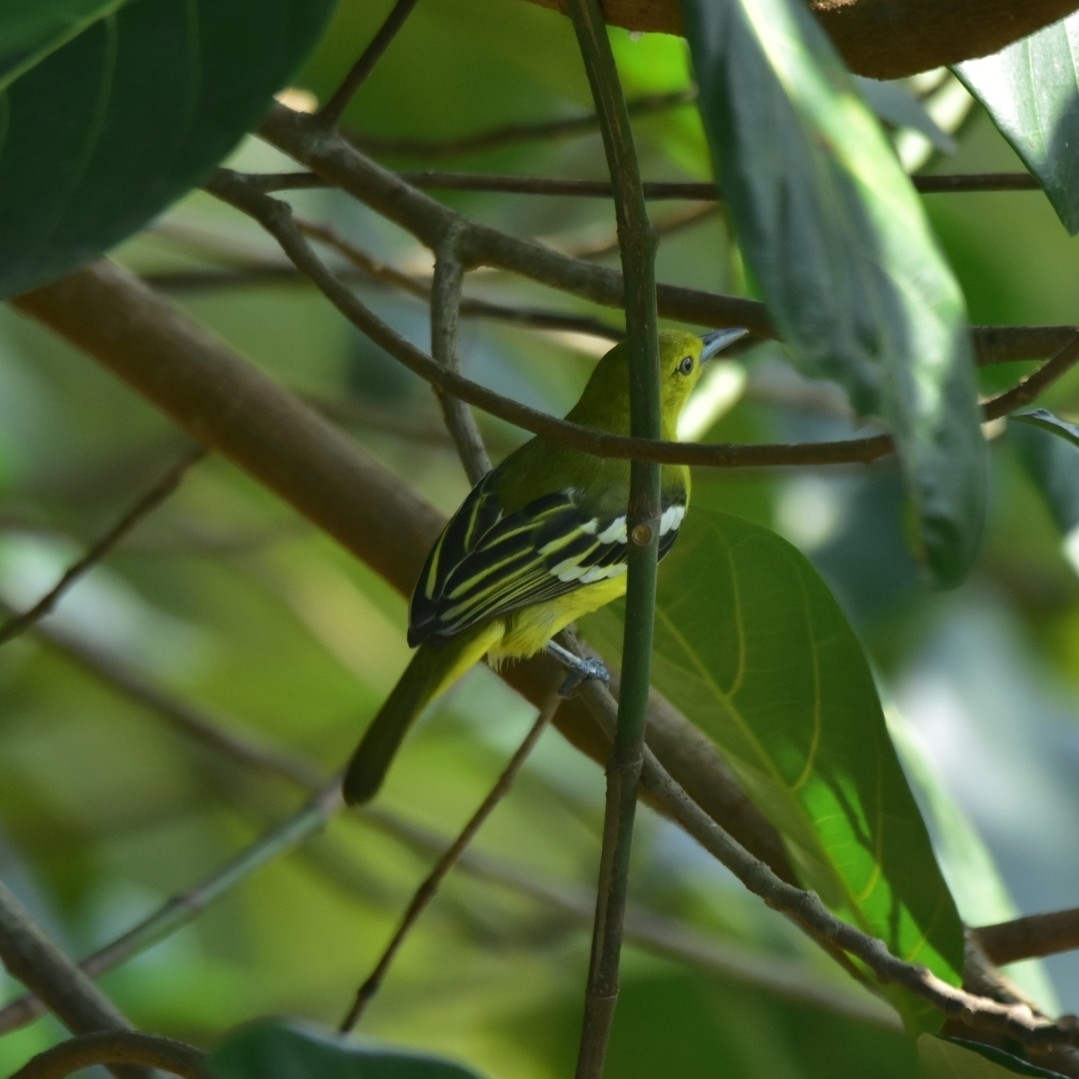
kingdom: Animalia
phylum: Chordata
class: Aves
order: Passeriformes
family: Aegithinidae
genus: Aegithina
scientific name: Aegithina tiphia
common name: Common iora
